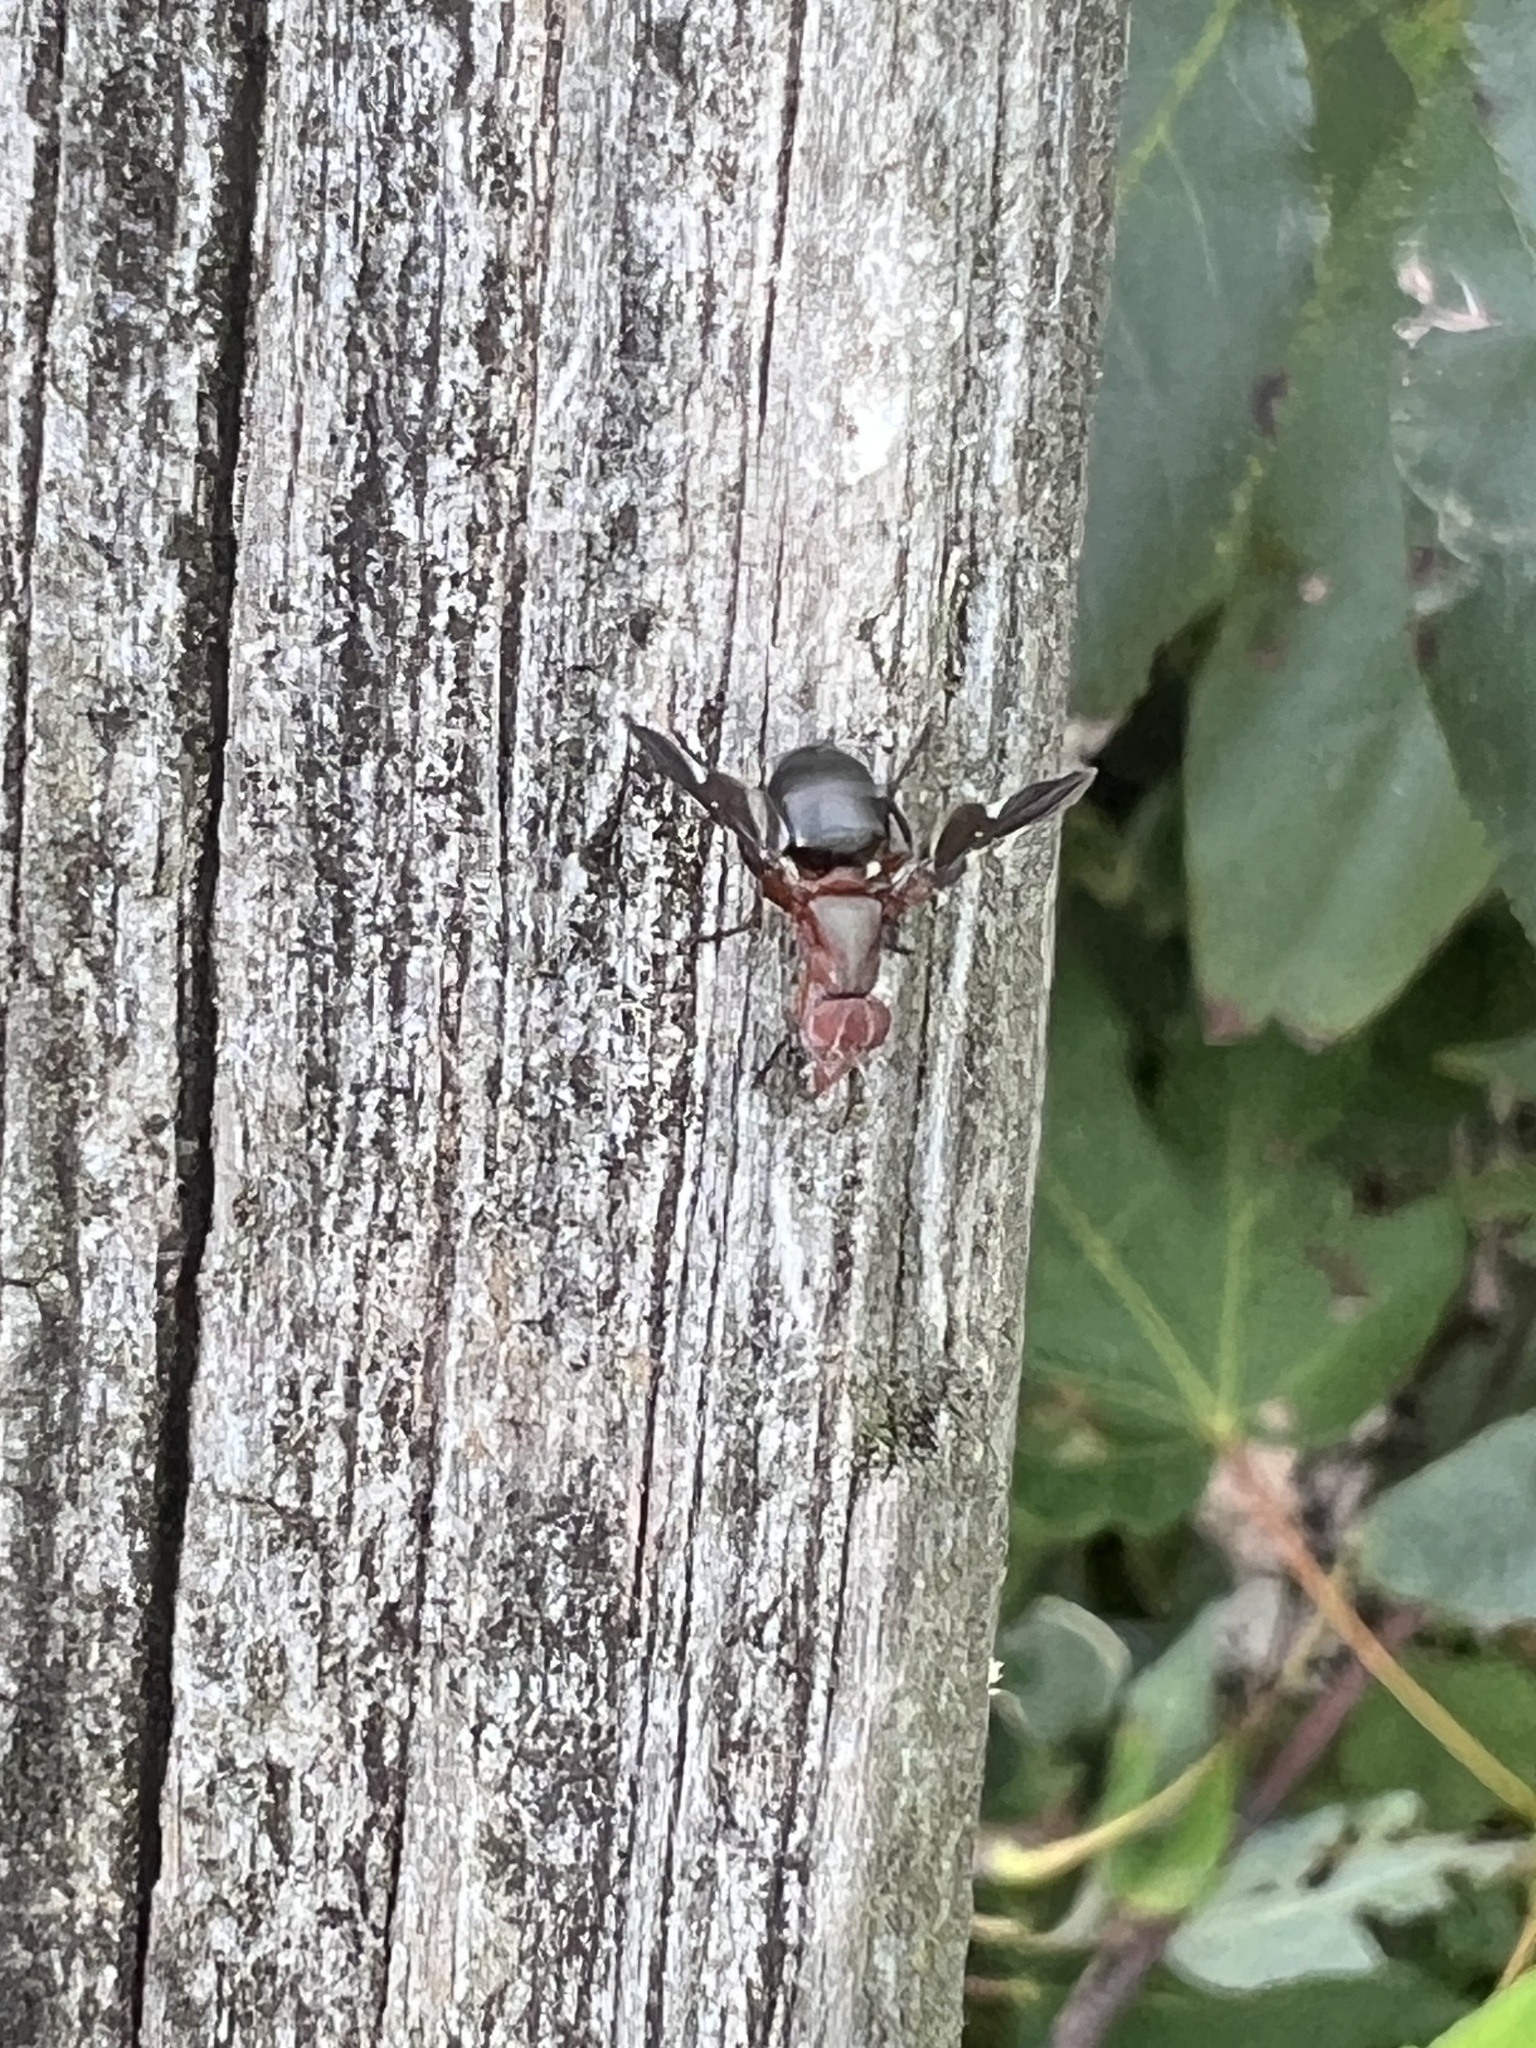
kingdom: Animalia
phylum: Arthropoda
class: Insecta
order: Diptera
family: Ulidiidae
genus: Delphinia
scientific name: Delphinia picta
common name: Common picture-winged fly
